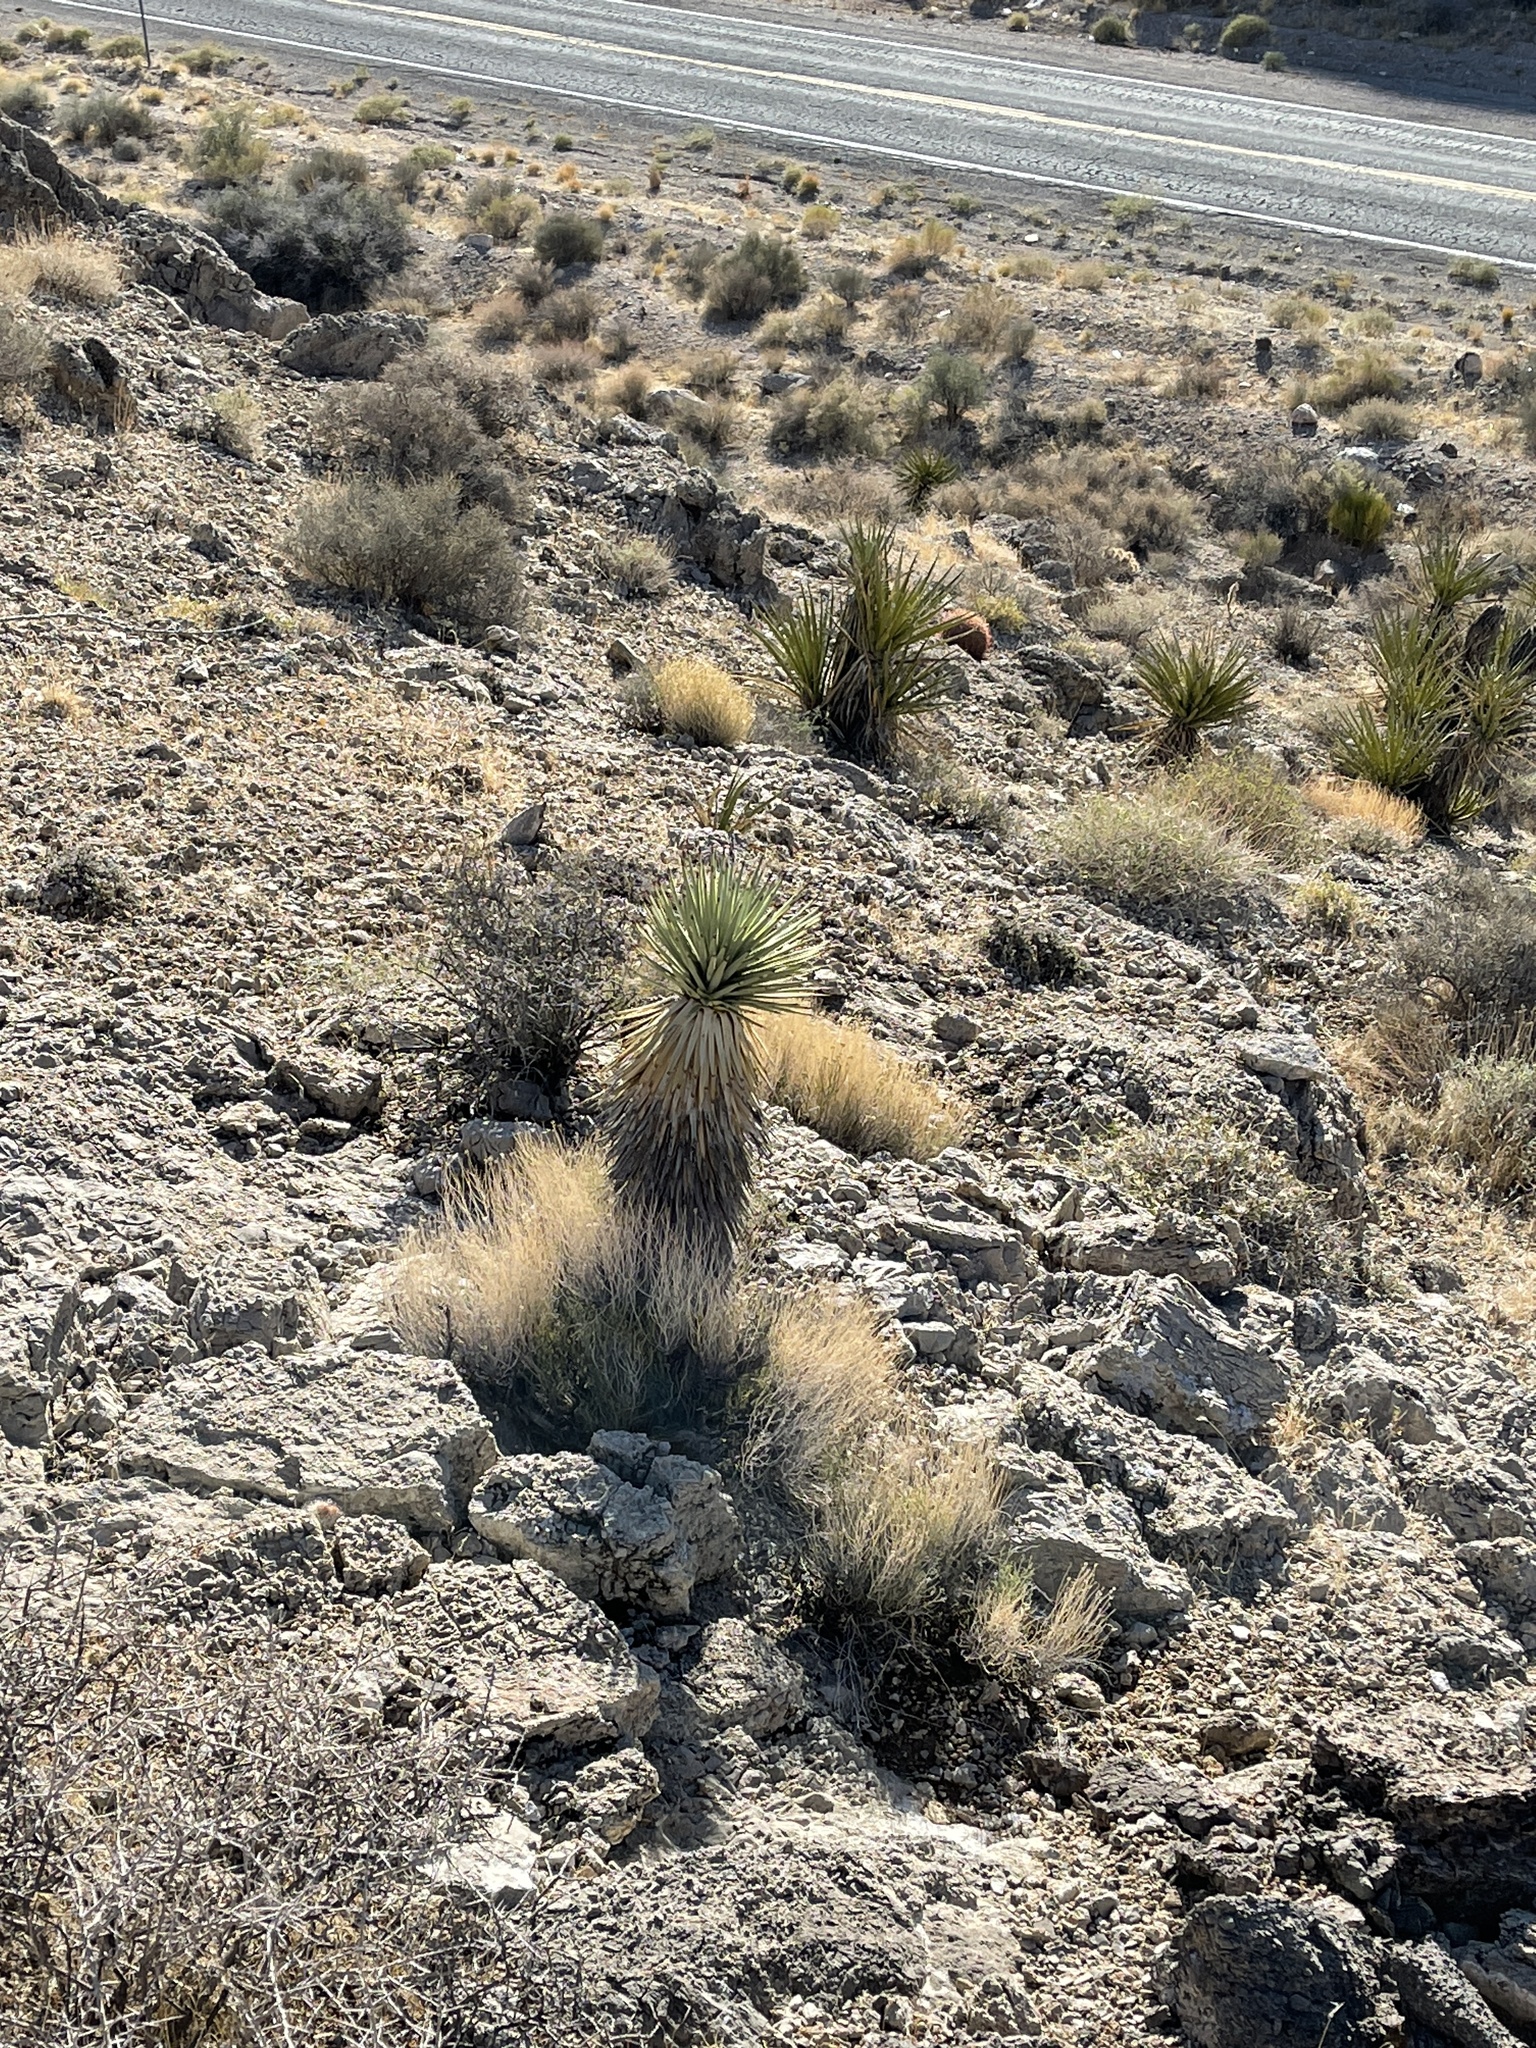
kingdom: Plantae
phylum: Tracheophyta
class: Liliopsida
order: Asparagales
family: Asparagaceae
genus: Yucca
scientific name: Yucca brevifolia
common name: Joshua tree
